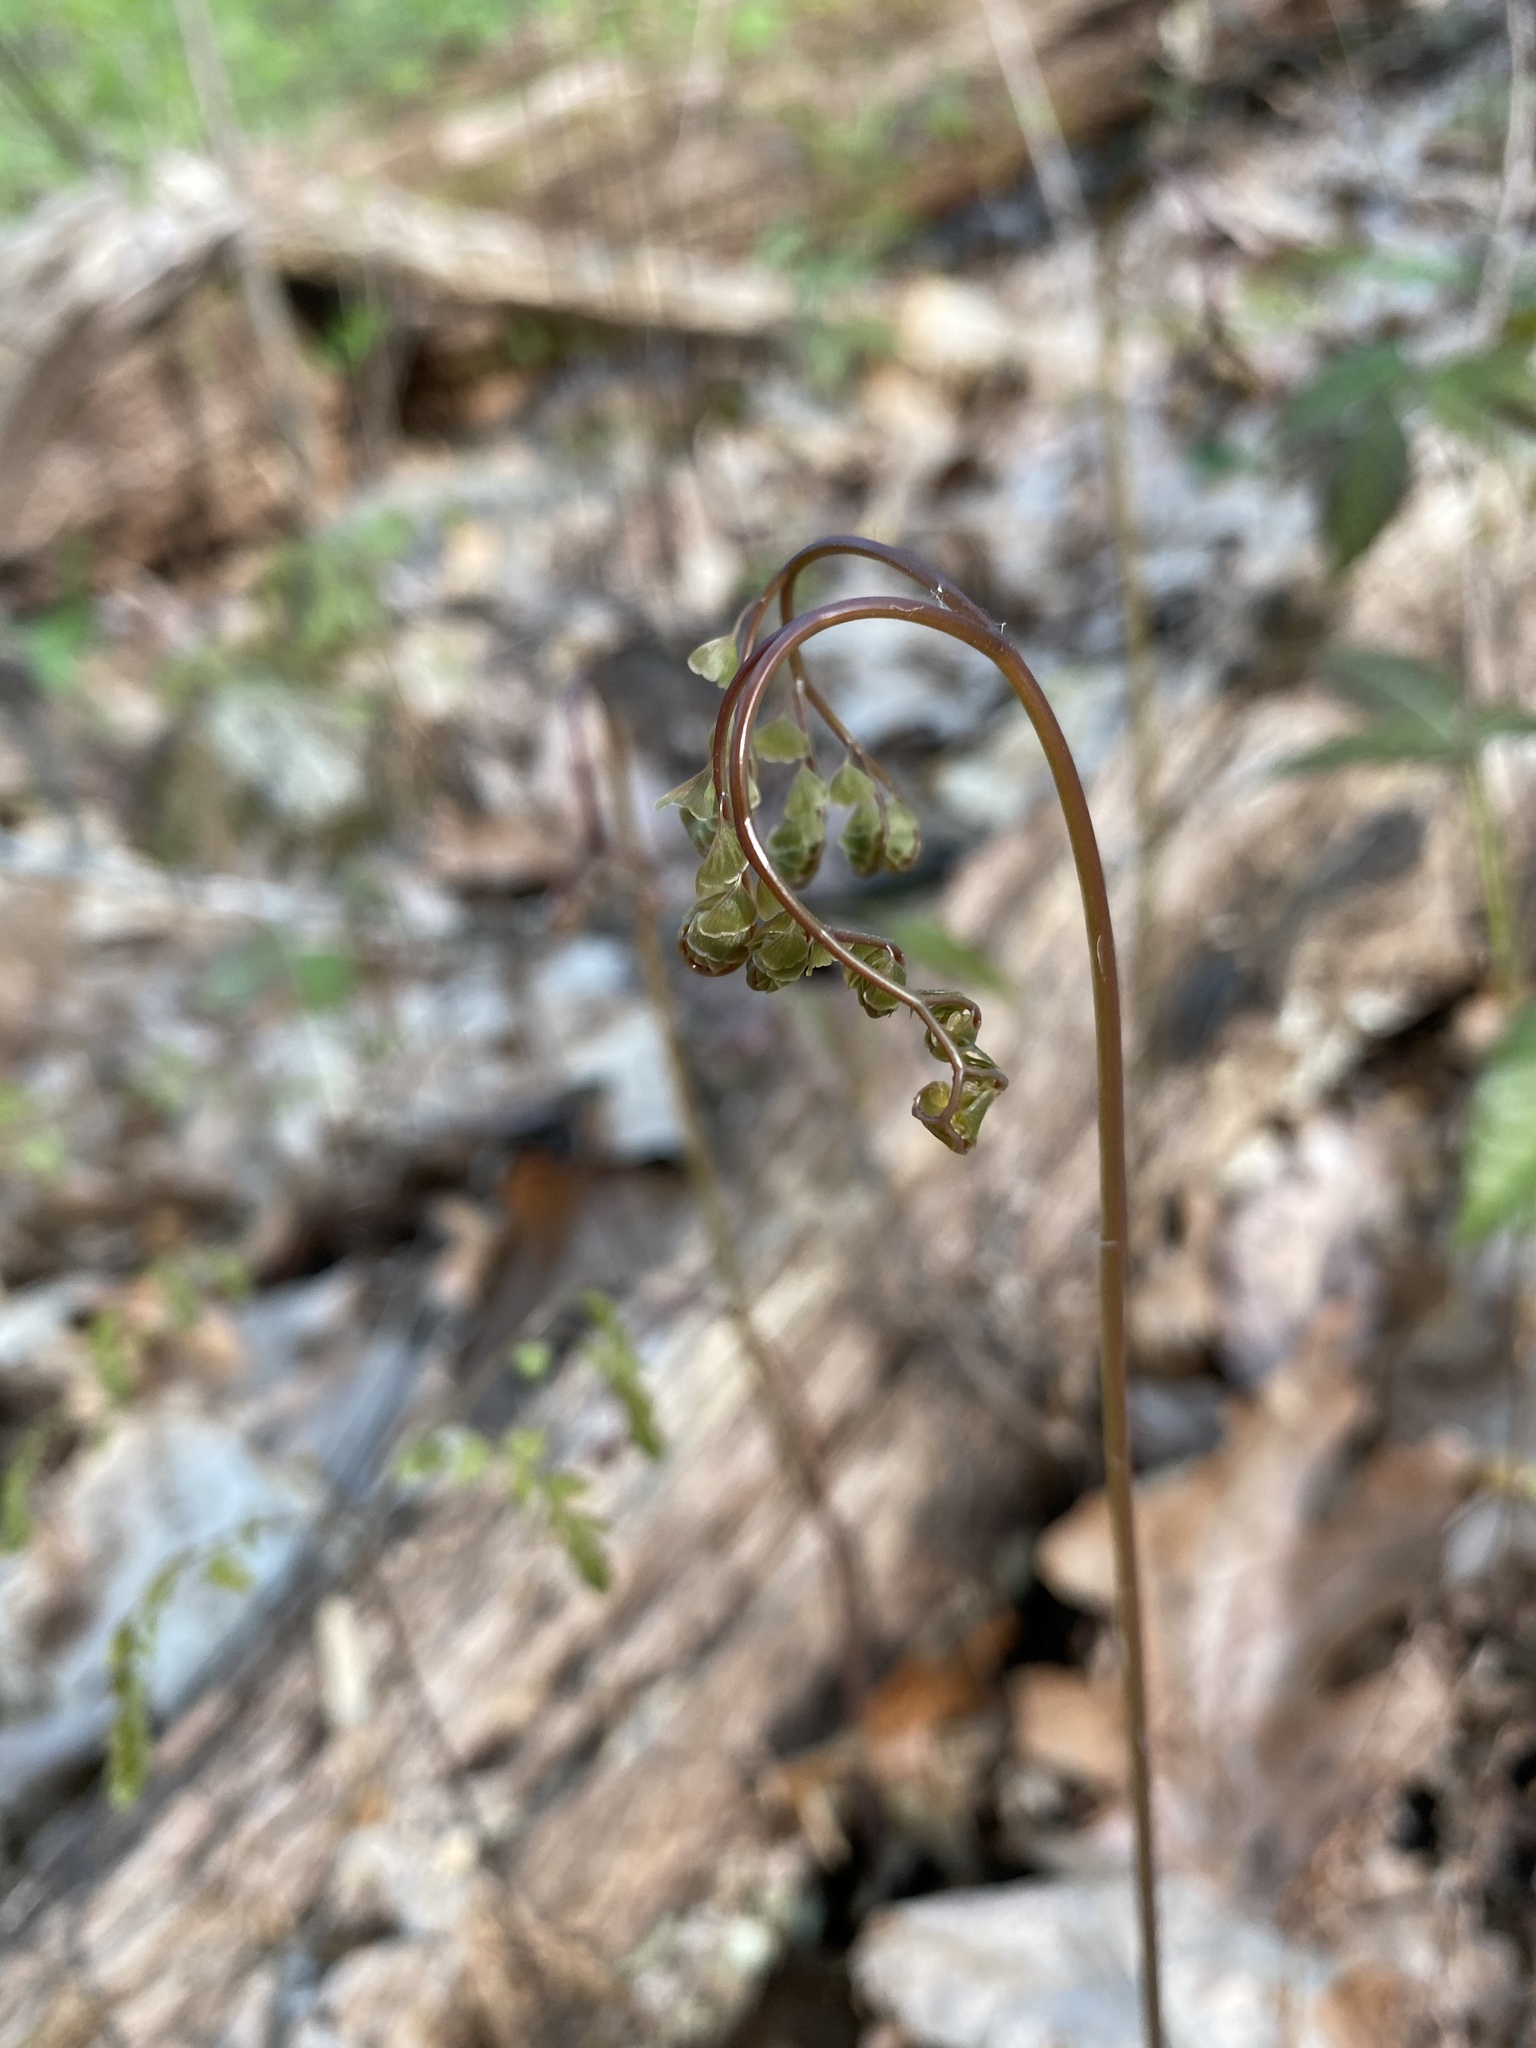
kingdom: Plantae
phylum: Tracheophyta
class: Polypodiopsida
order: Polypodiales
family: Pteridaceae
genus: Adiantum
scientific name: Adiantum pedatum
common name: Five-finger fern
